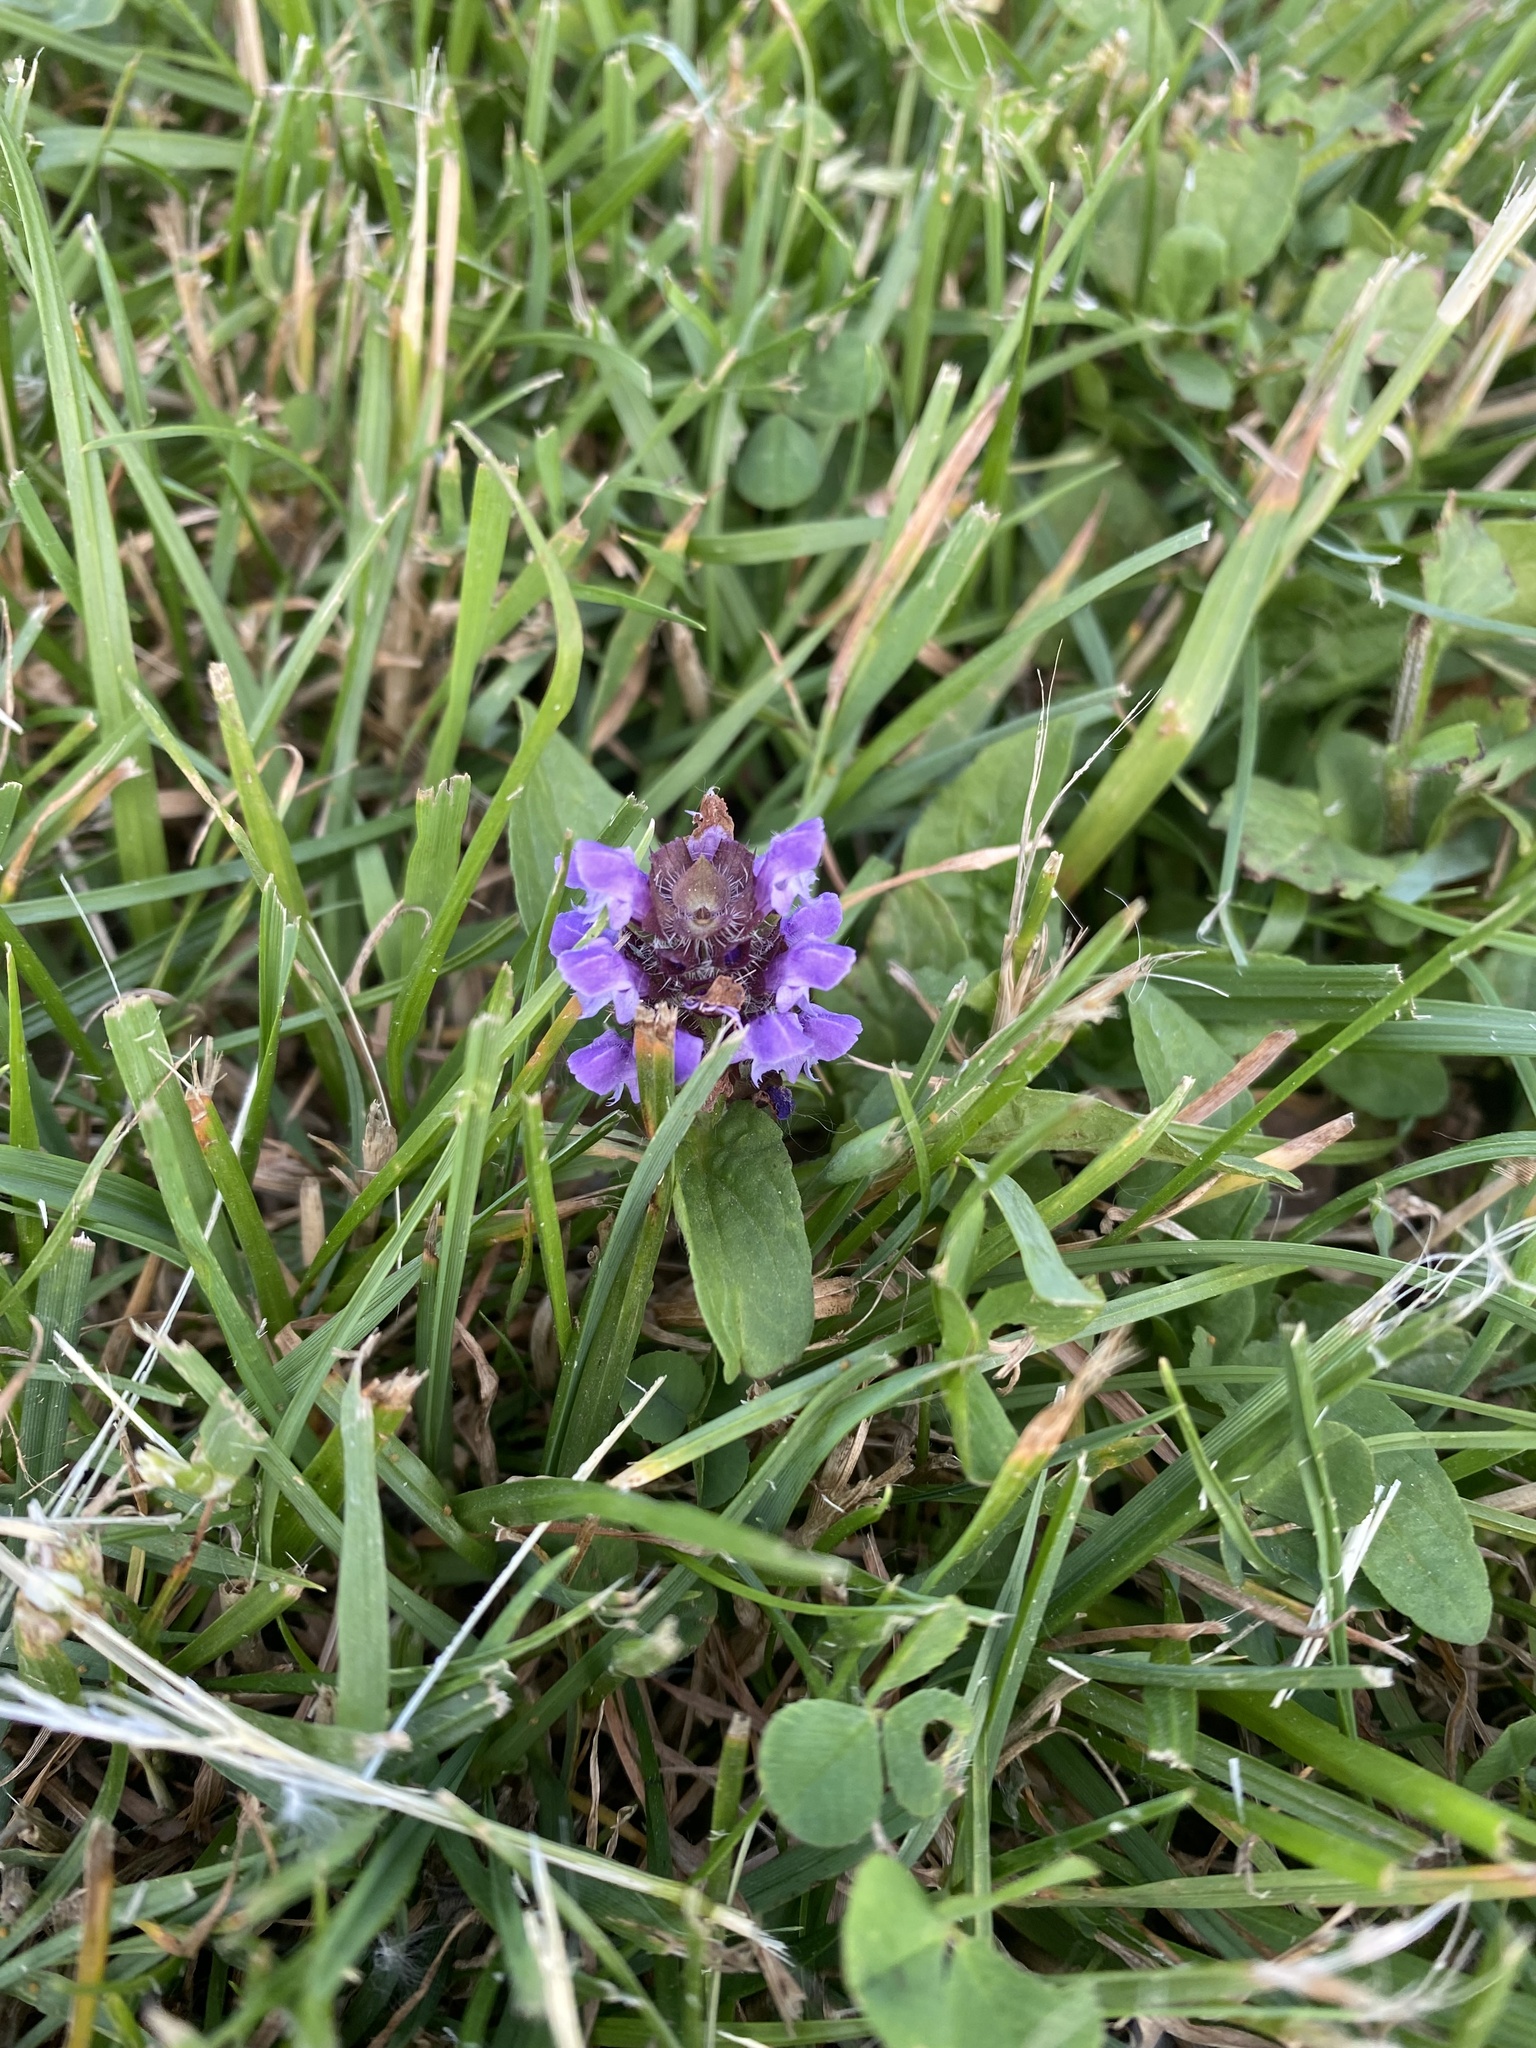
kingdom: Plantae
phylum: Tracheophyta
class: Magnoliopsida
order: Lamiales
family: Lamiaceae
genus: Prunella
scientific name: Prunella vulgaris
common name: Heal-all
